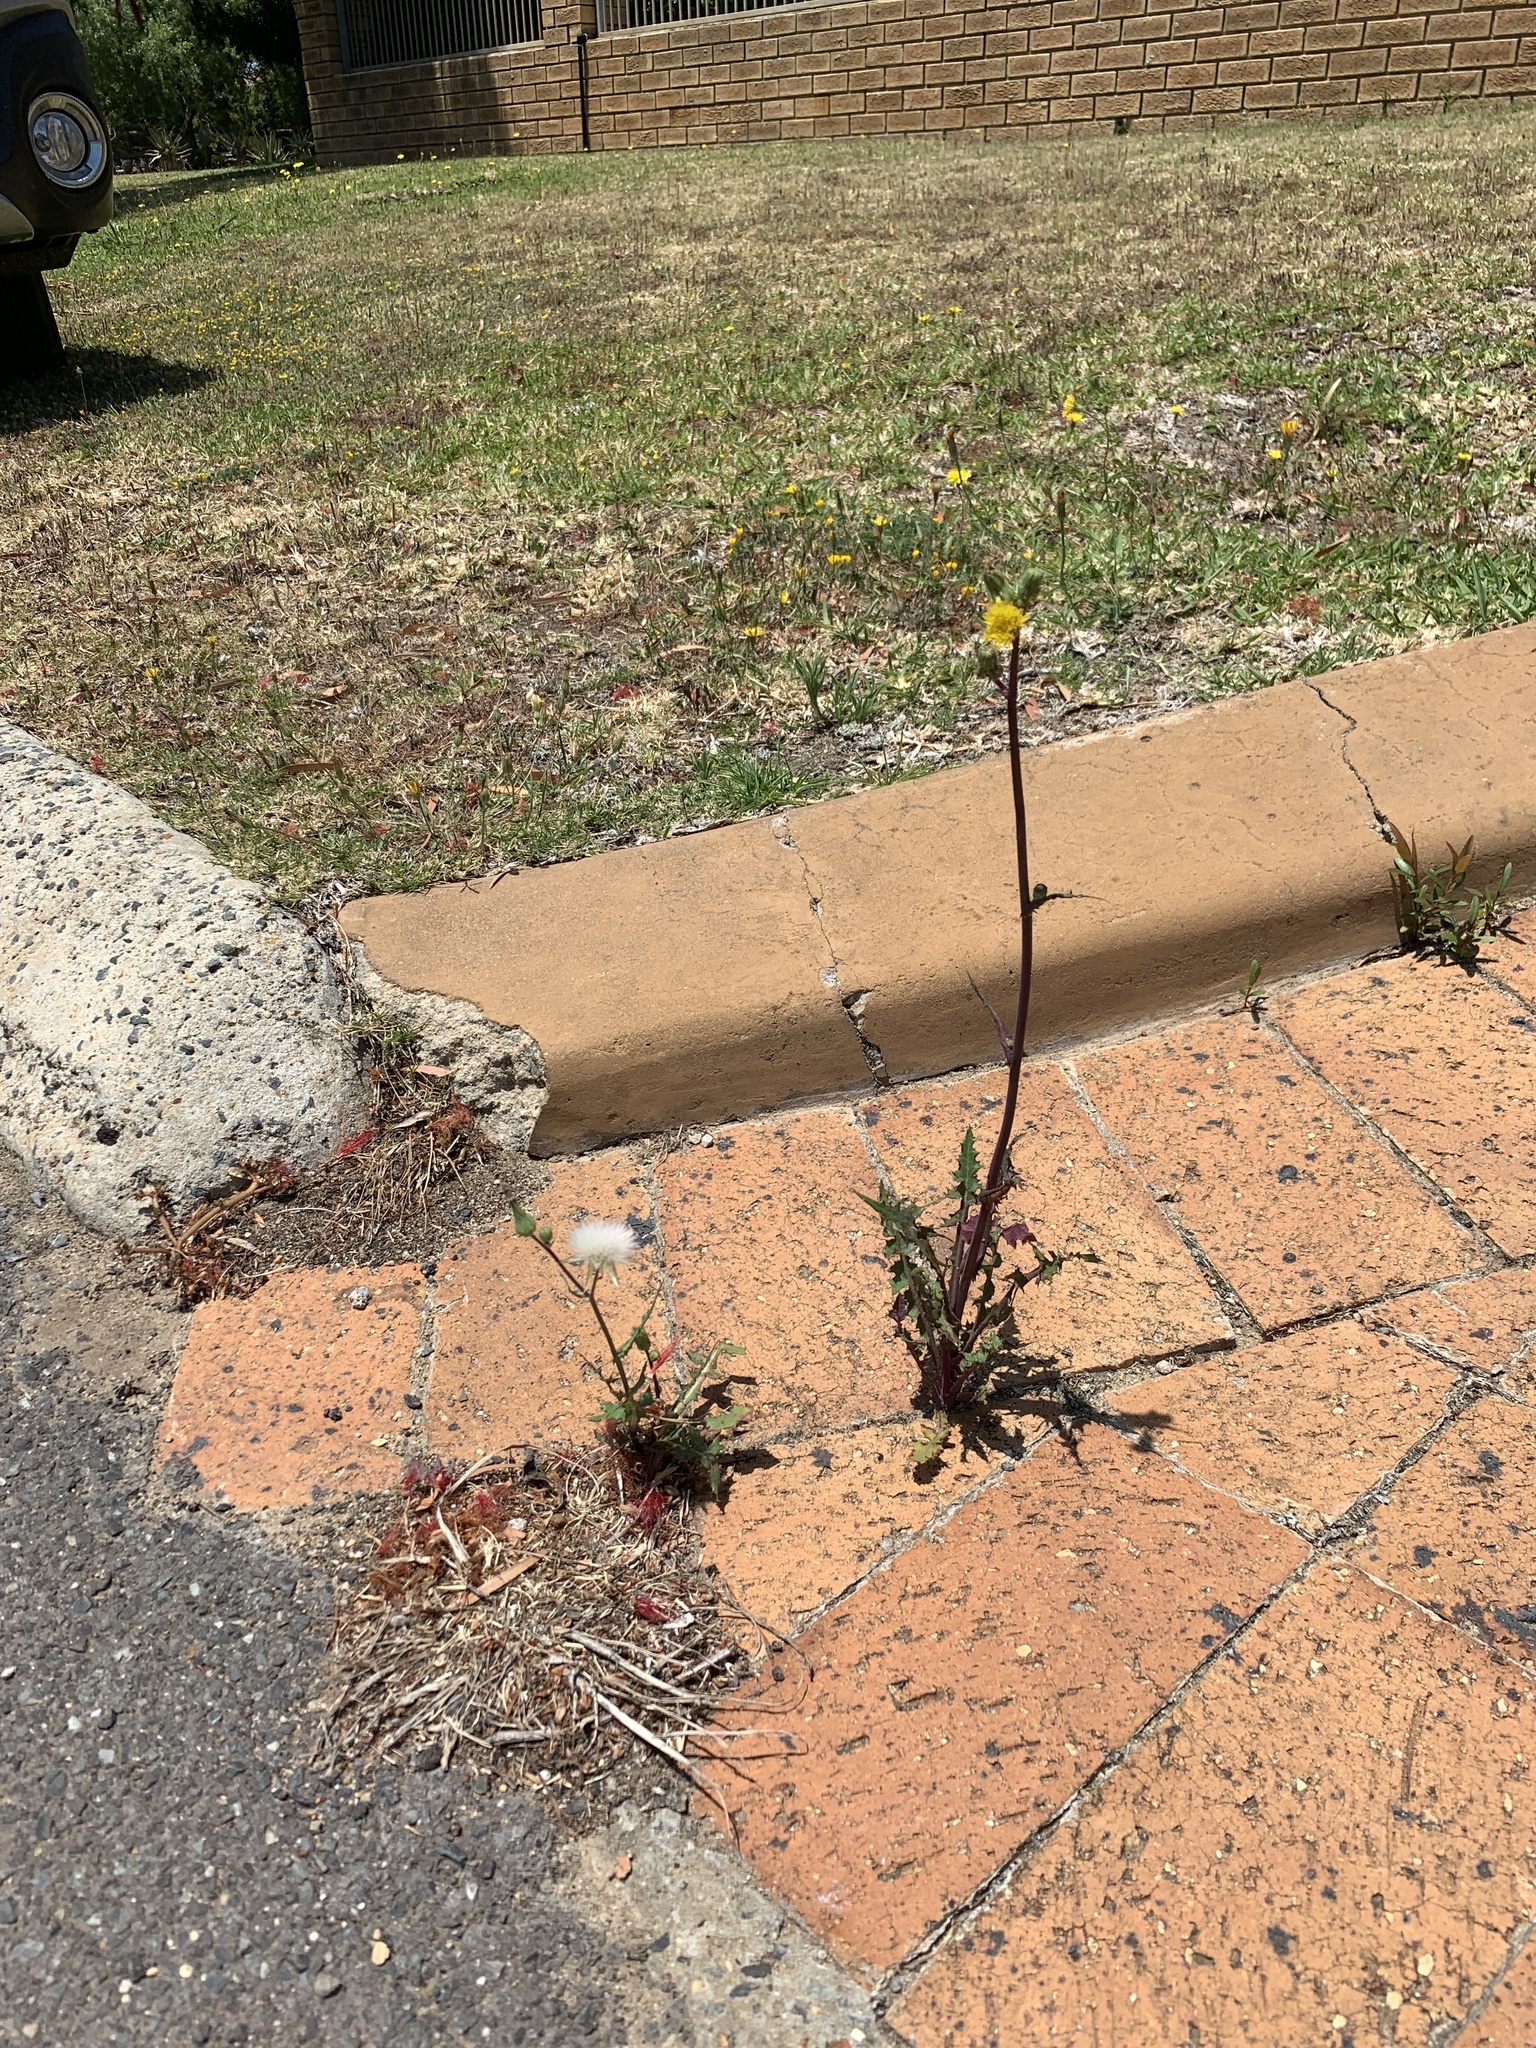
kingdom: Plantae
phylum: Tracheophyta
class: Magnoliopsida
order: Asterales
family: Asteraceae
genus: Sonchus
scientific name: Sonchus oleraceus
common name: Common sowthistle
